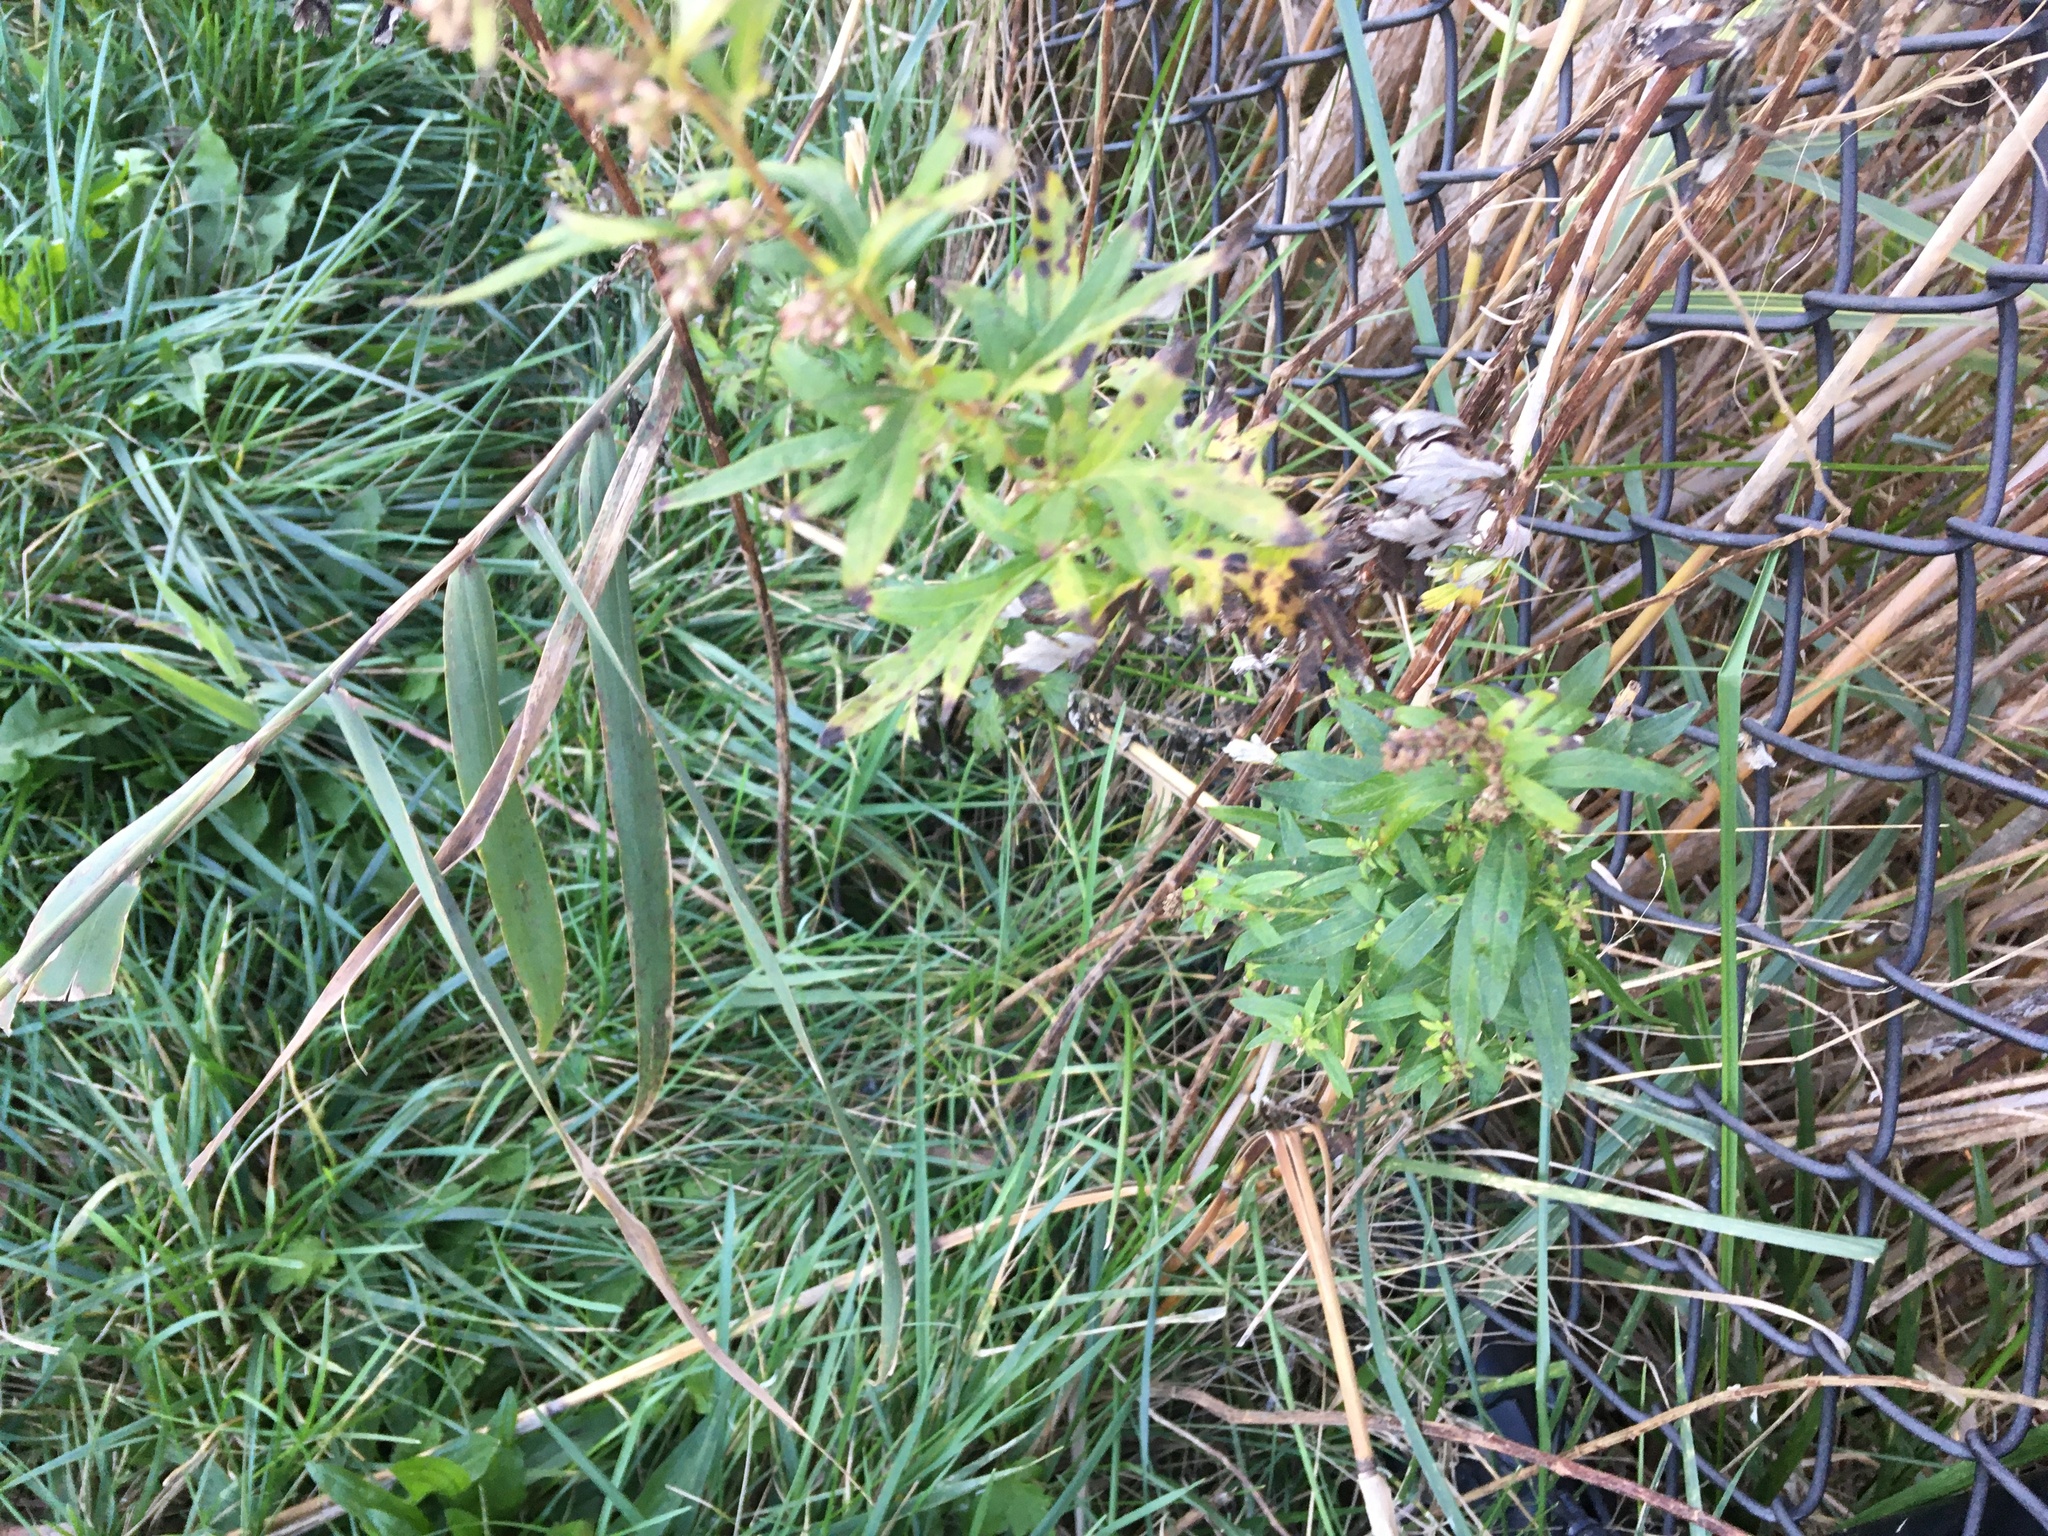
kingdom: Plantae
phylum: Tracheophyta
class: Magnoliopsida
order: Asterales
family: Asteraceae
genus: Artemisia
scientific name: Artemisia vulgaris
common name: Mugwort
